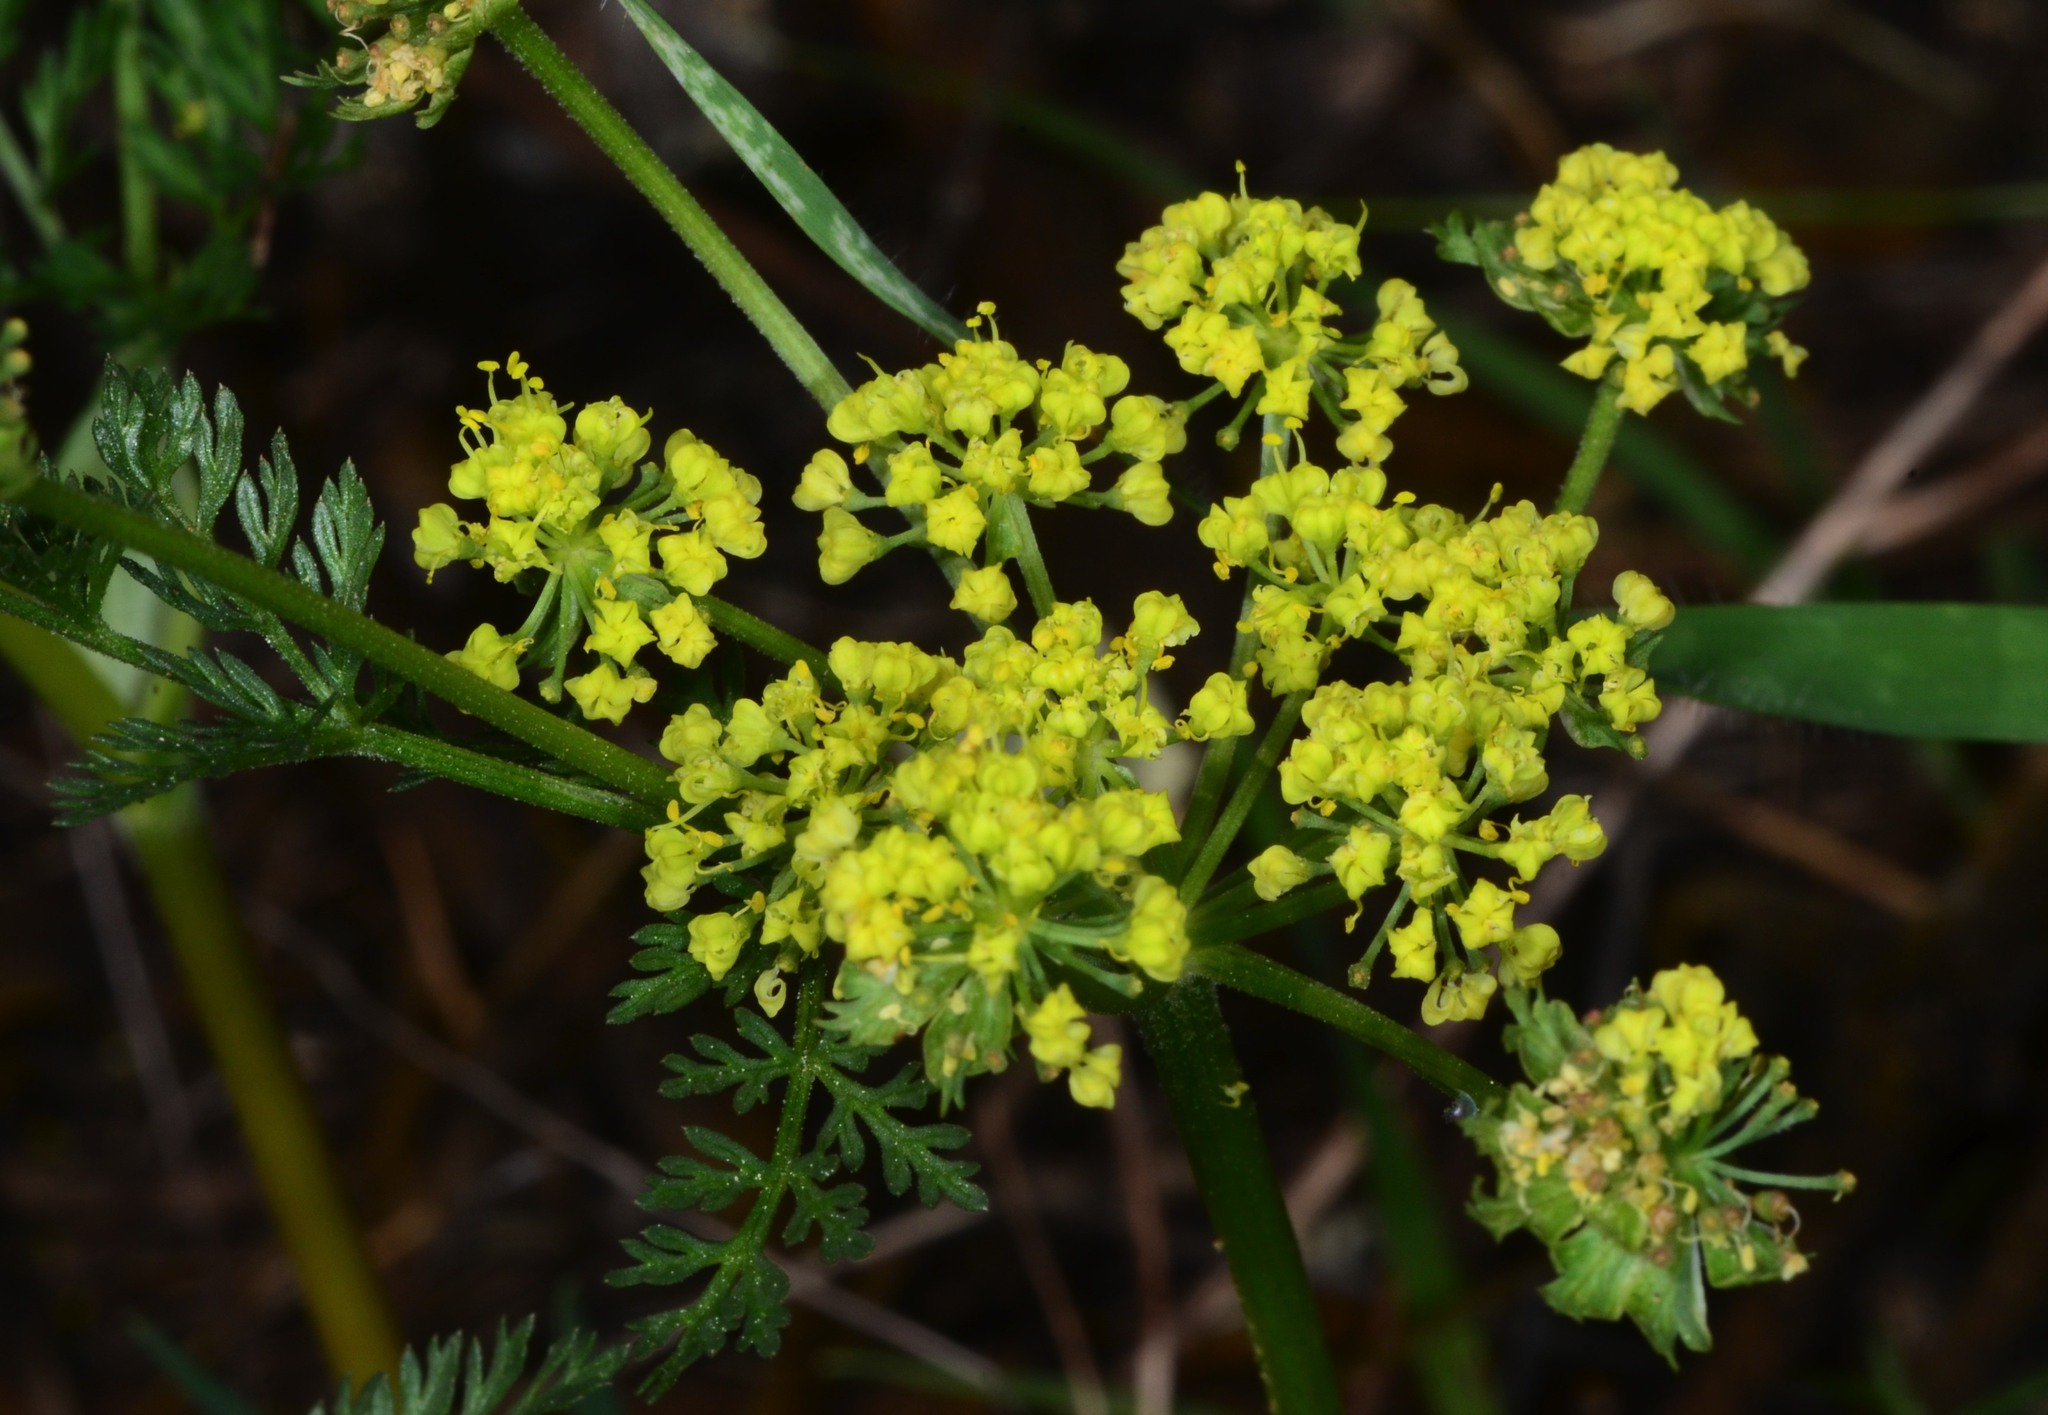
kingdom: Plantae
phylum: Tracheophyta
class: Magnoliopsida
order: Apiales
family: Apiaceae
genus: Lomatium
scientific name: Lomatium utriculatum
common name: Fine-leaf desert-parsley
